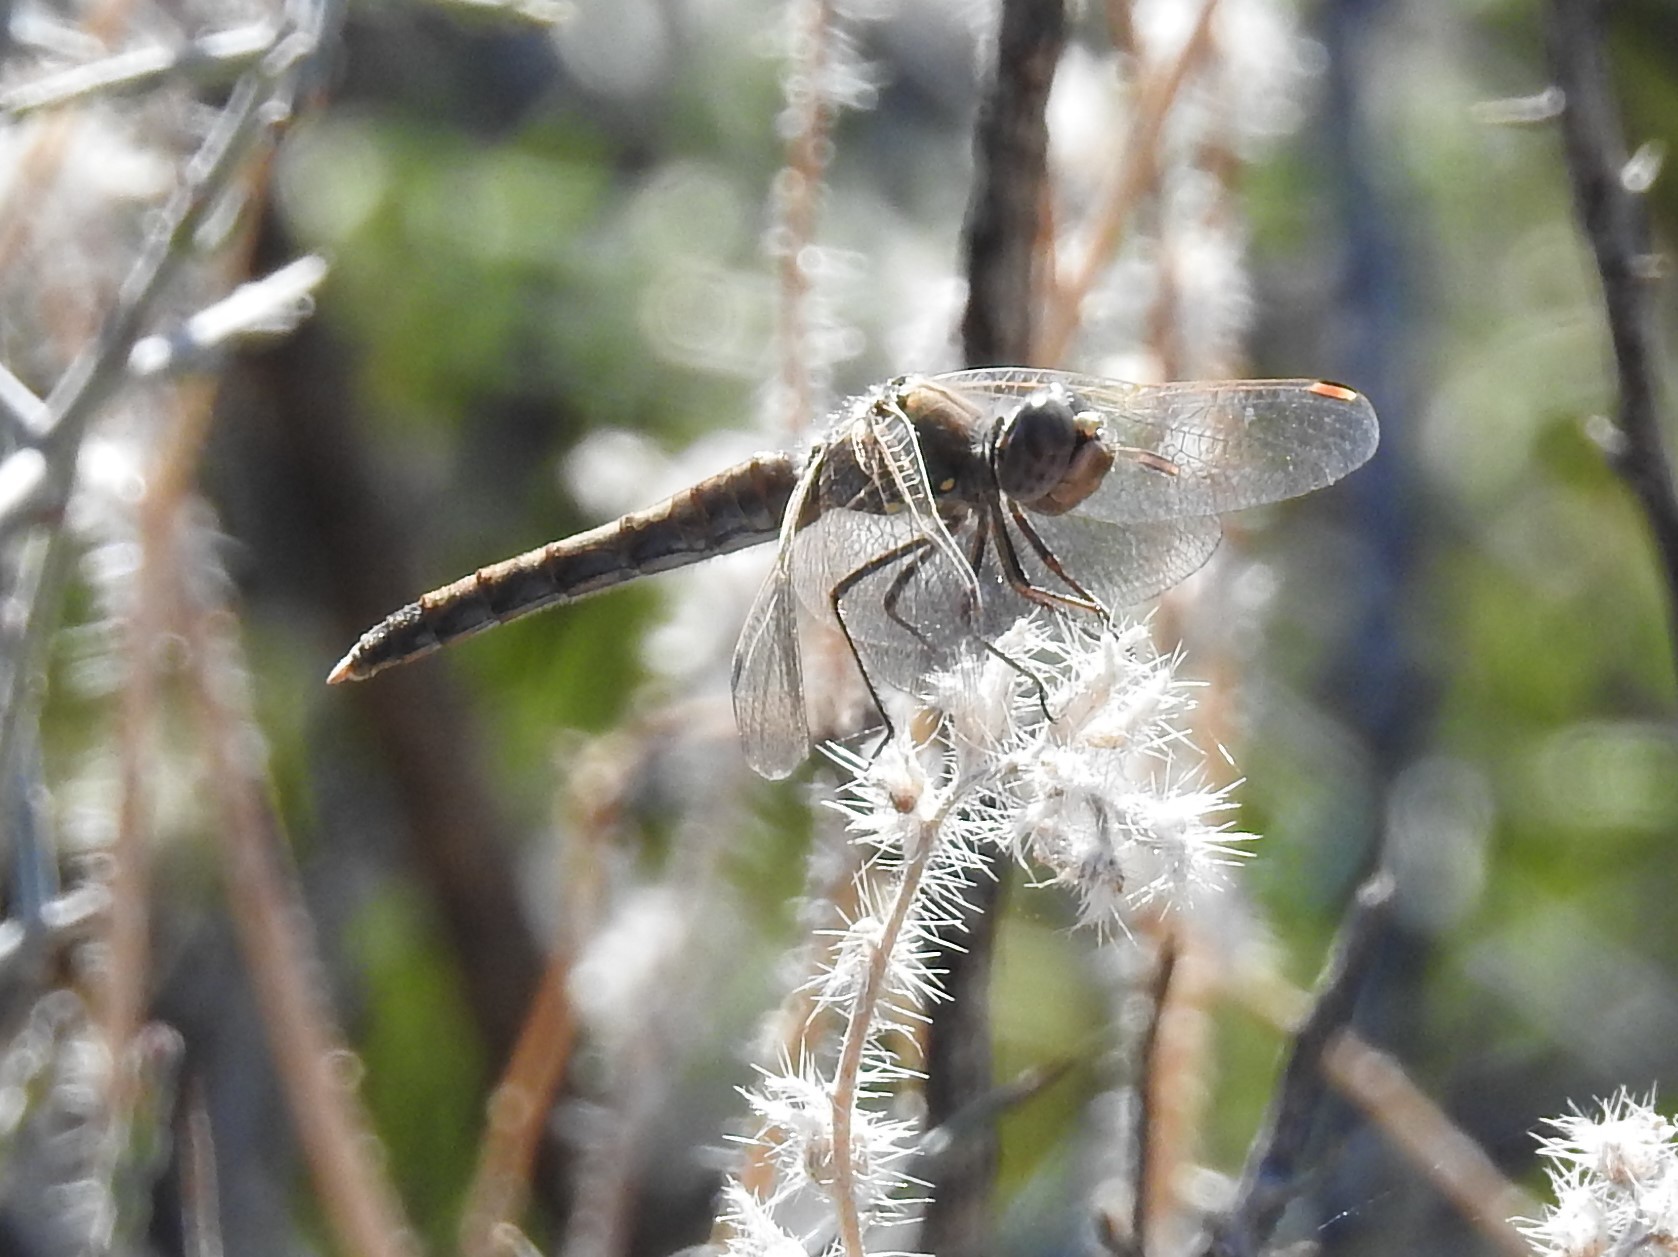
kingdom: Animalia
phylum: Arthropoda
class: Insecta
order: Odonata
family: Libellulidae
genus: Sympetrum
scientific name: Sympetrum corruptum
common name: Variegated meadowhawk
